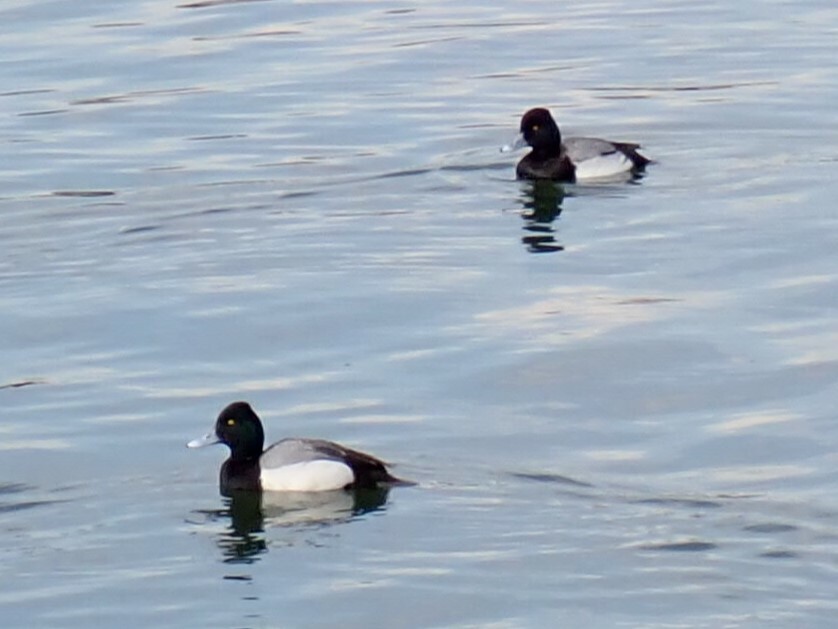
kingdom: Animalia
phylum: Chordata
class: Aves
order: Anseriformes
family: Anatidae
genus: Aythya
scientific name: Aythya affinis
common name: Lesser scaup
